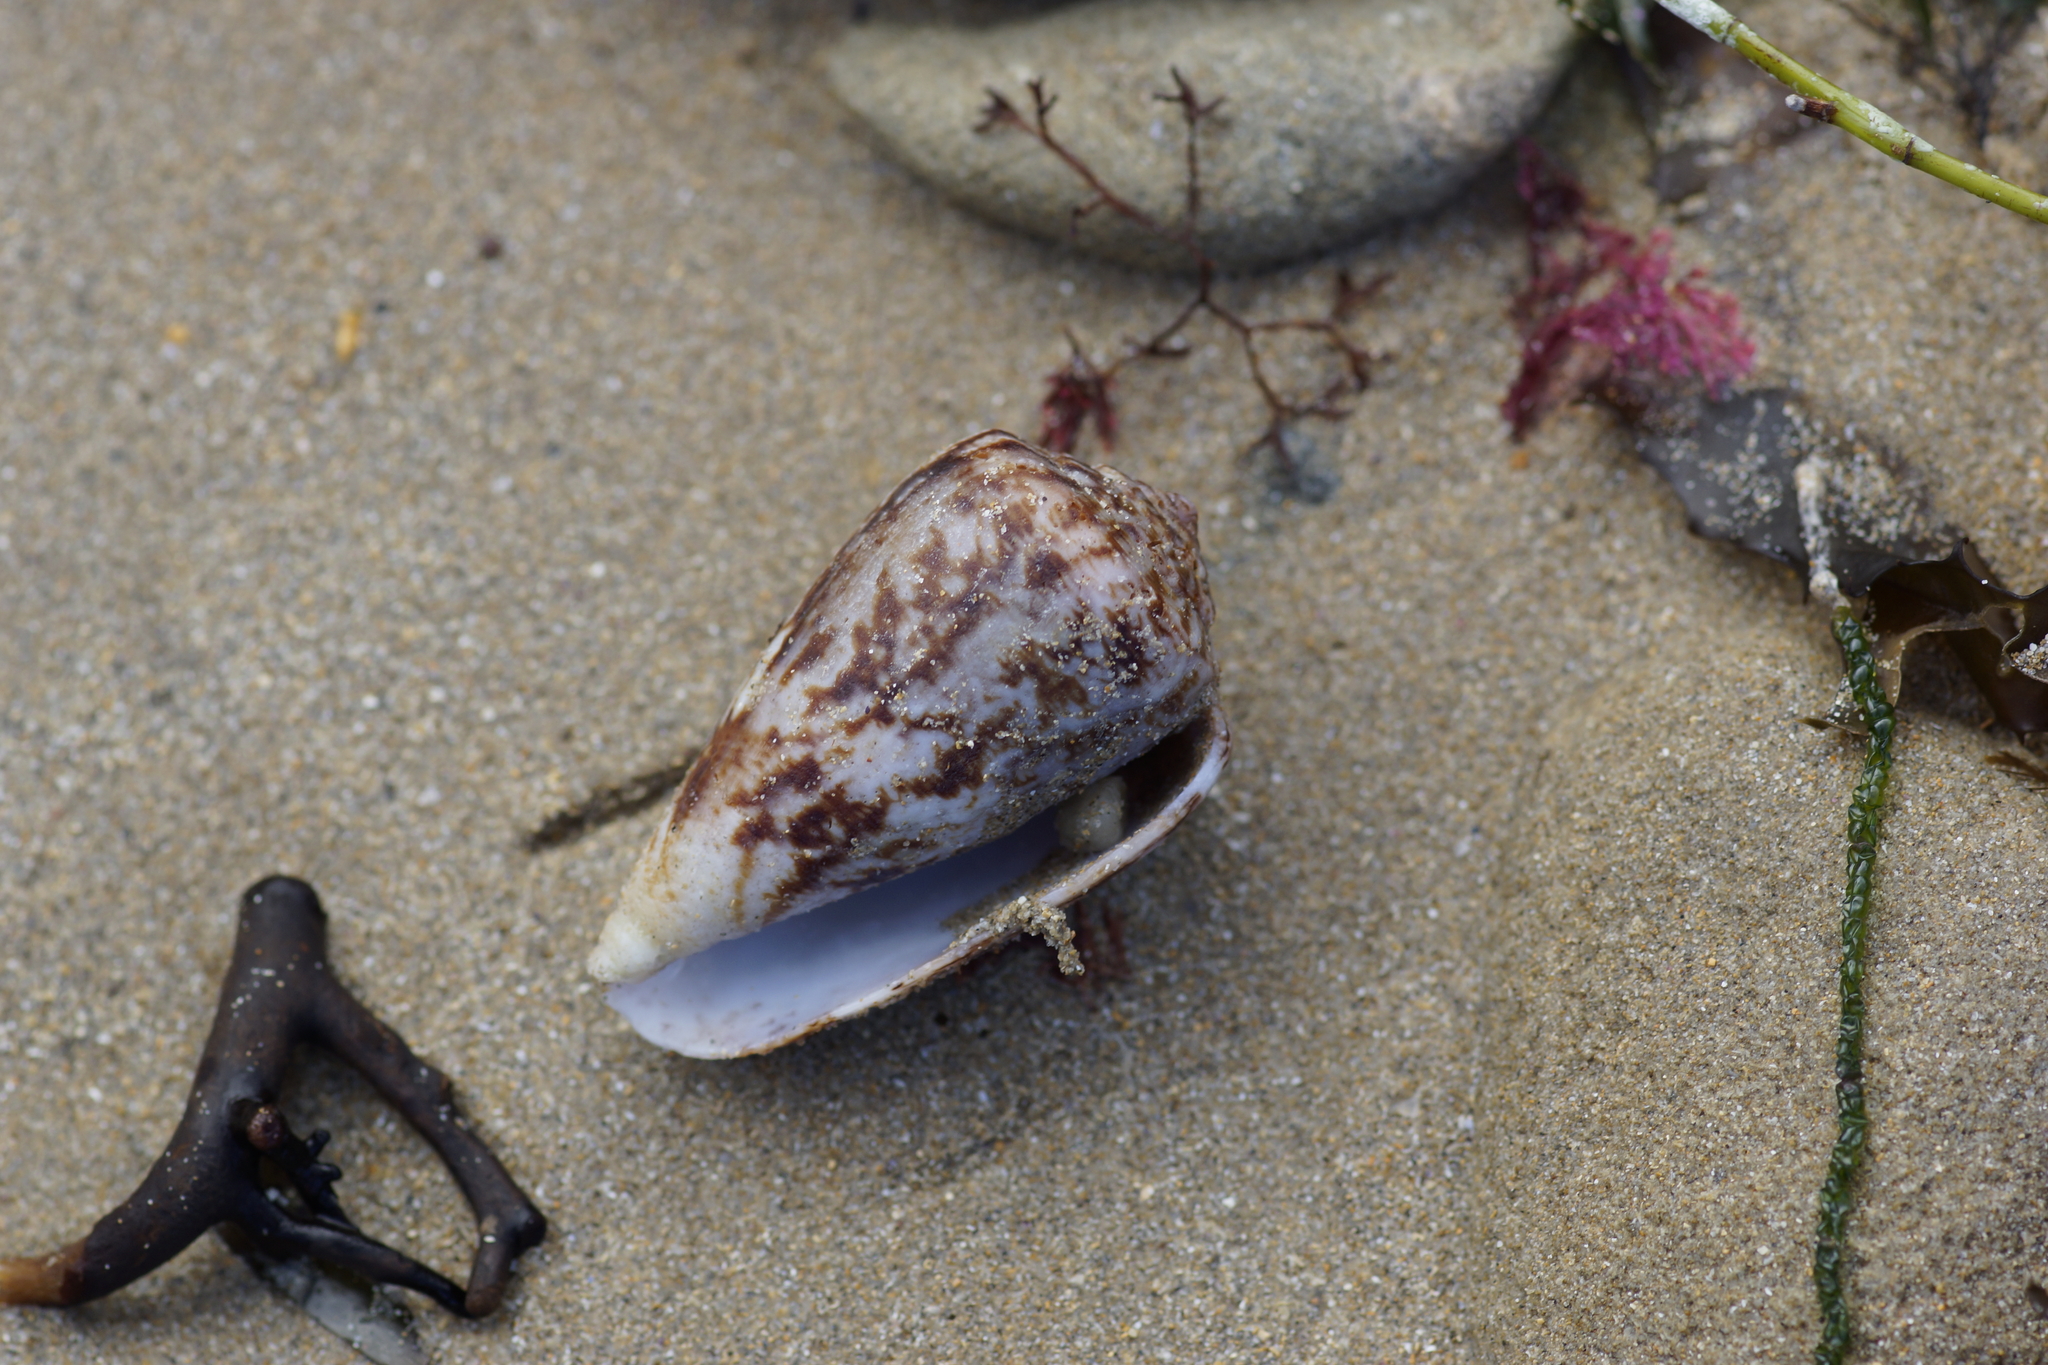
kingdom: Animalia
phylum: Mollusca
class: Gastropoda
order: Neogastropoda
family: Conidae
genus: Conus
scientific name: Conus anemone
